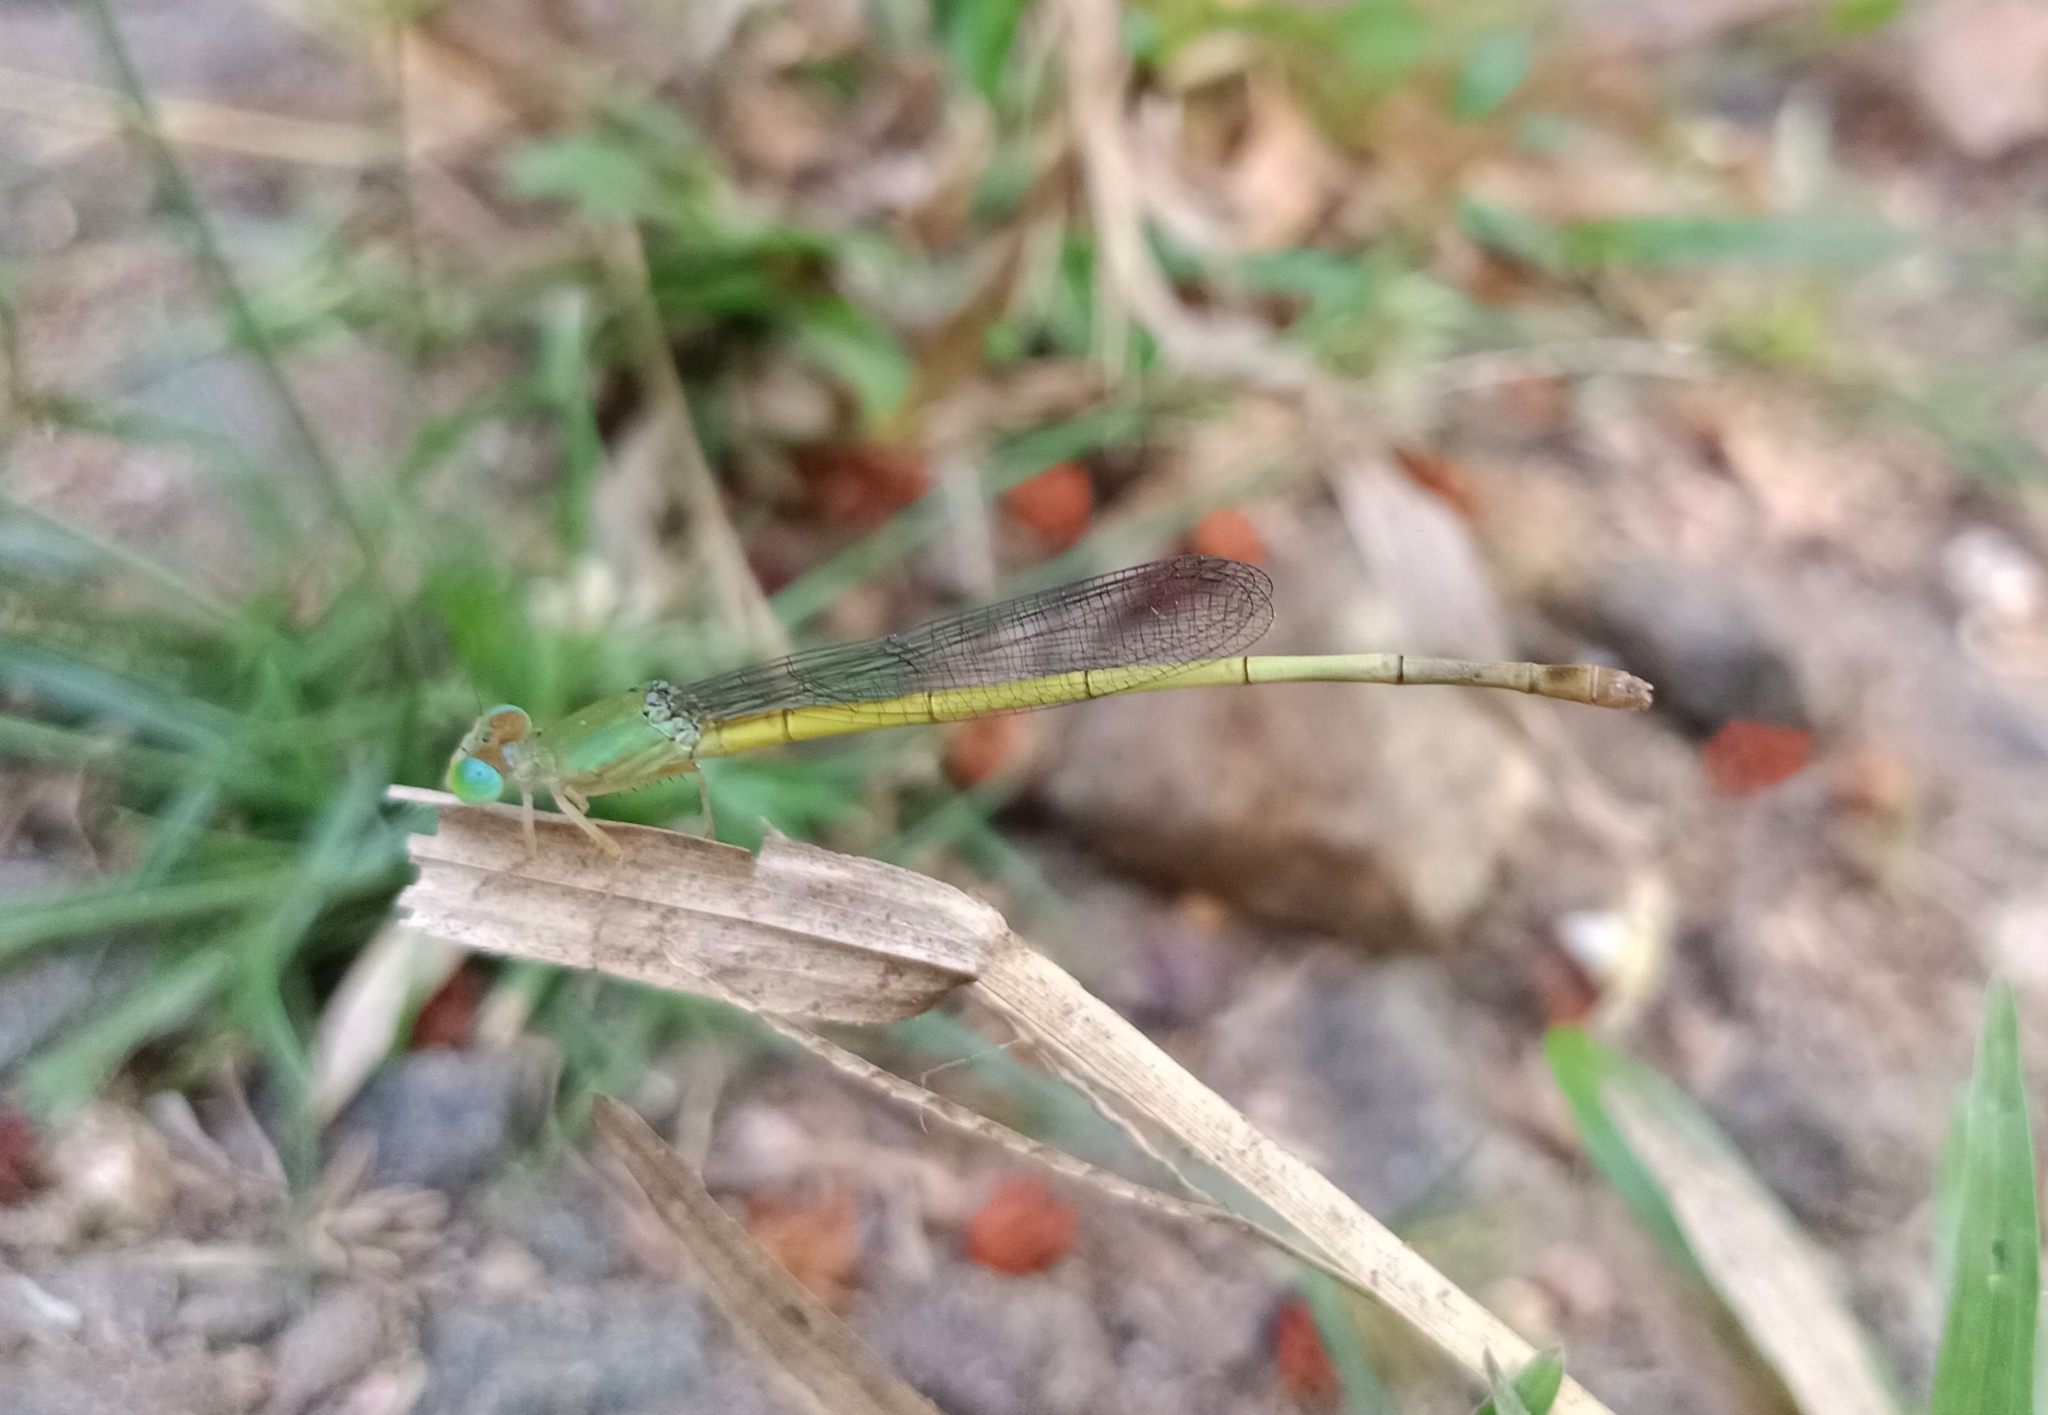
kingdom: Animalia
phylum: Arthropoda
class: Insecta
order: Odonata
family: Coenagrionidae
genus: Ceriagrion
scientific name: Ceriagrion coromandelianum
